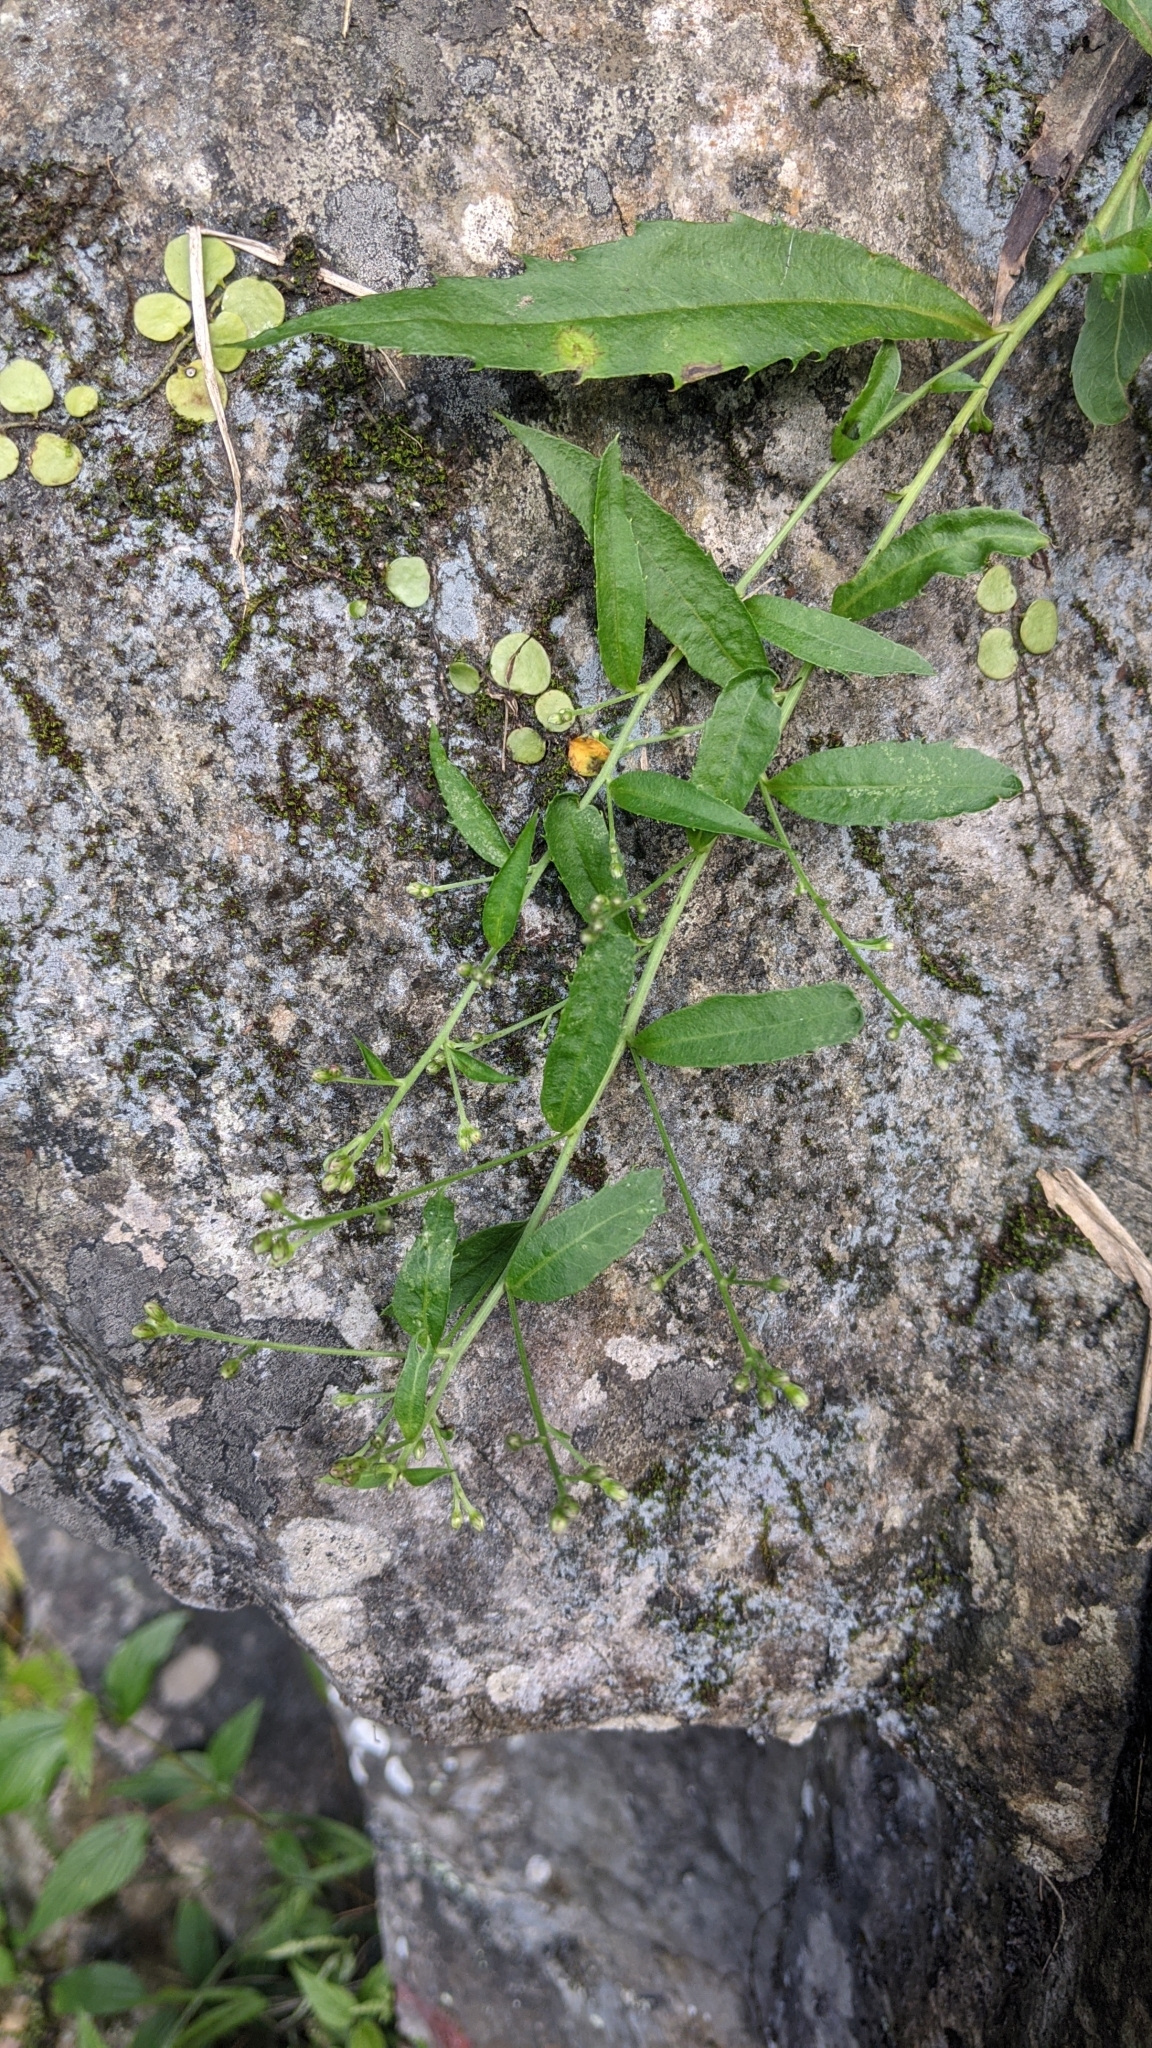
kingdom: Plantae
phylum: Tracheophyta
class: Magnoliopsida
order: Asterales
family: Asteraceae
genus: Aster
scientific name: Aster taiwanensis
